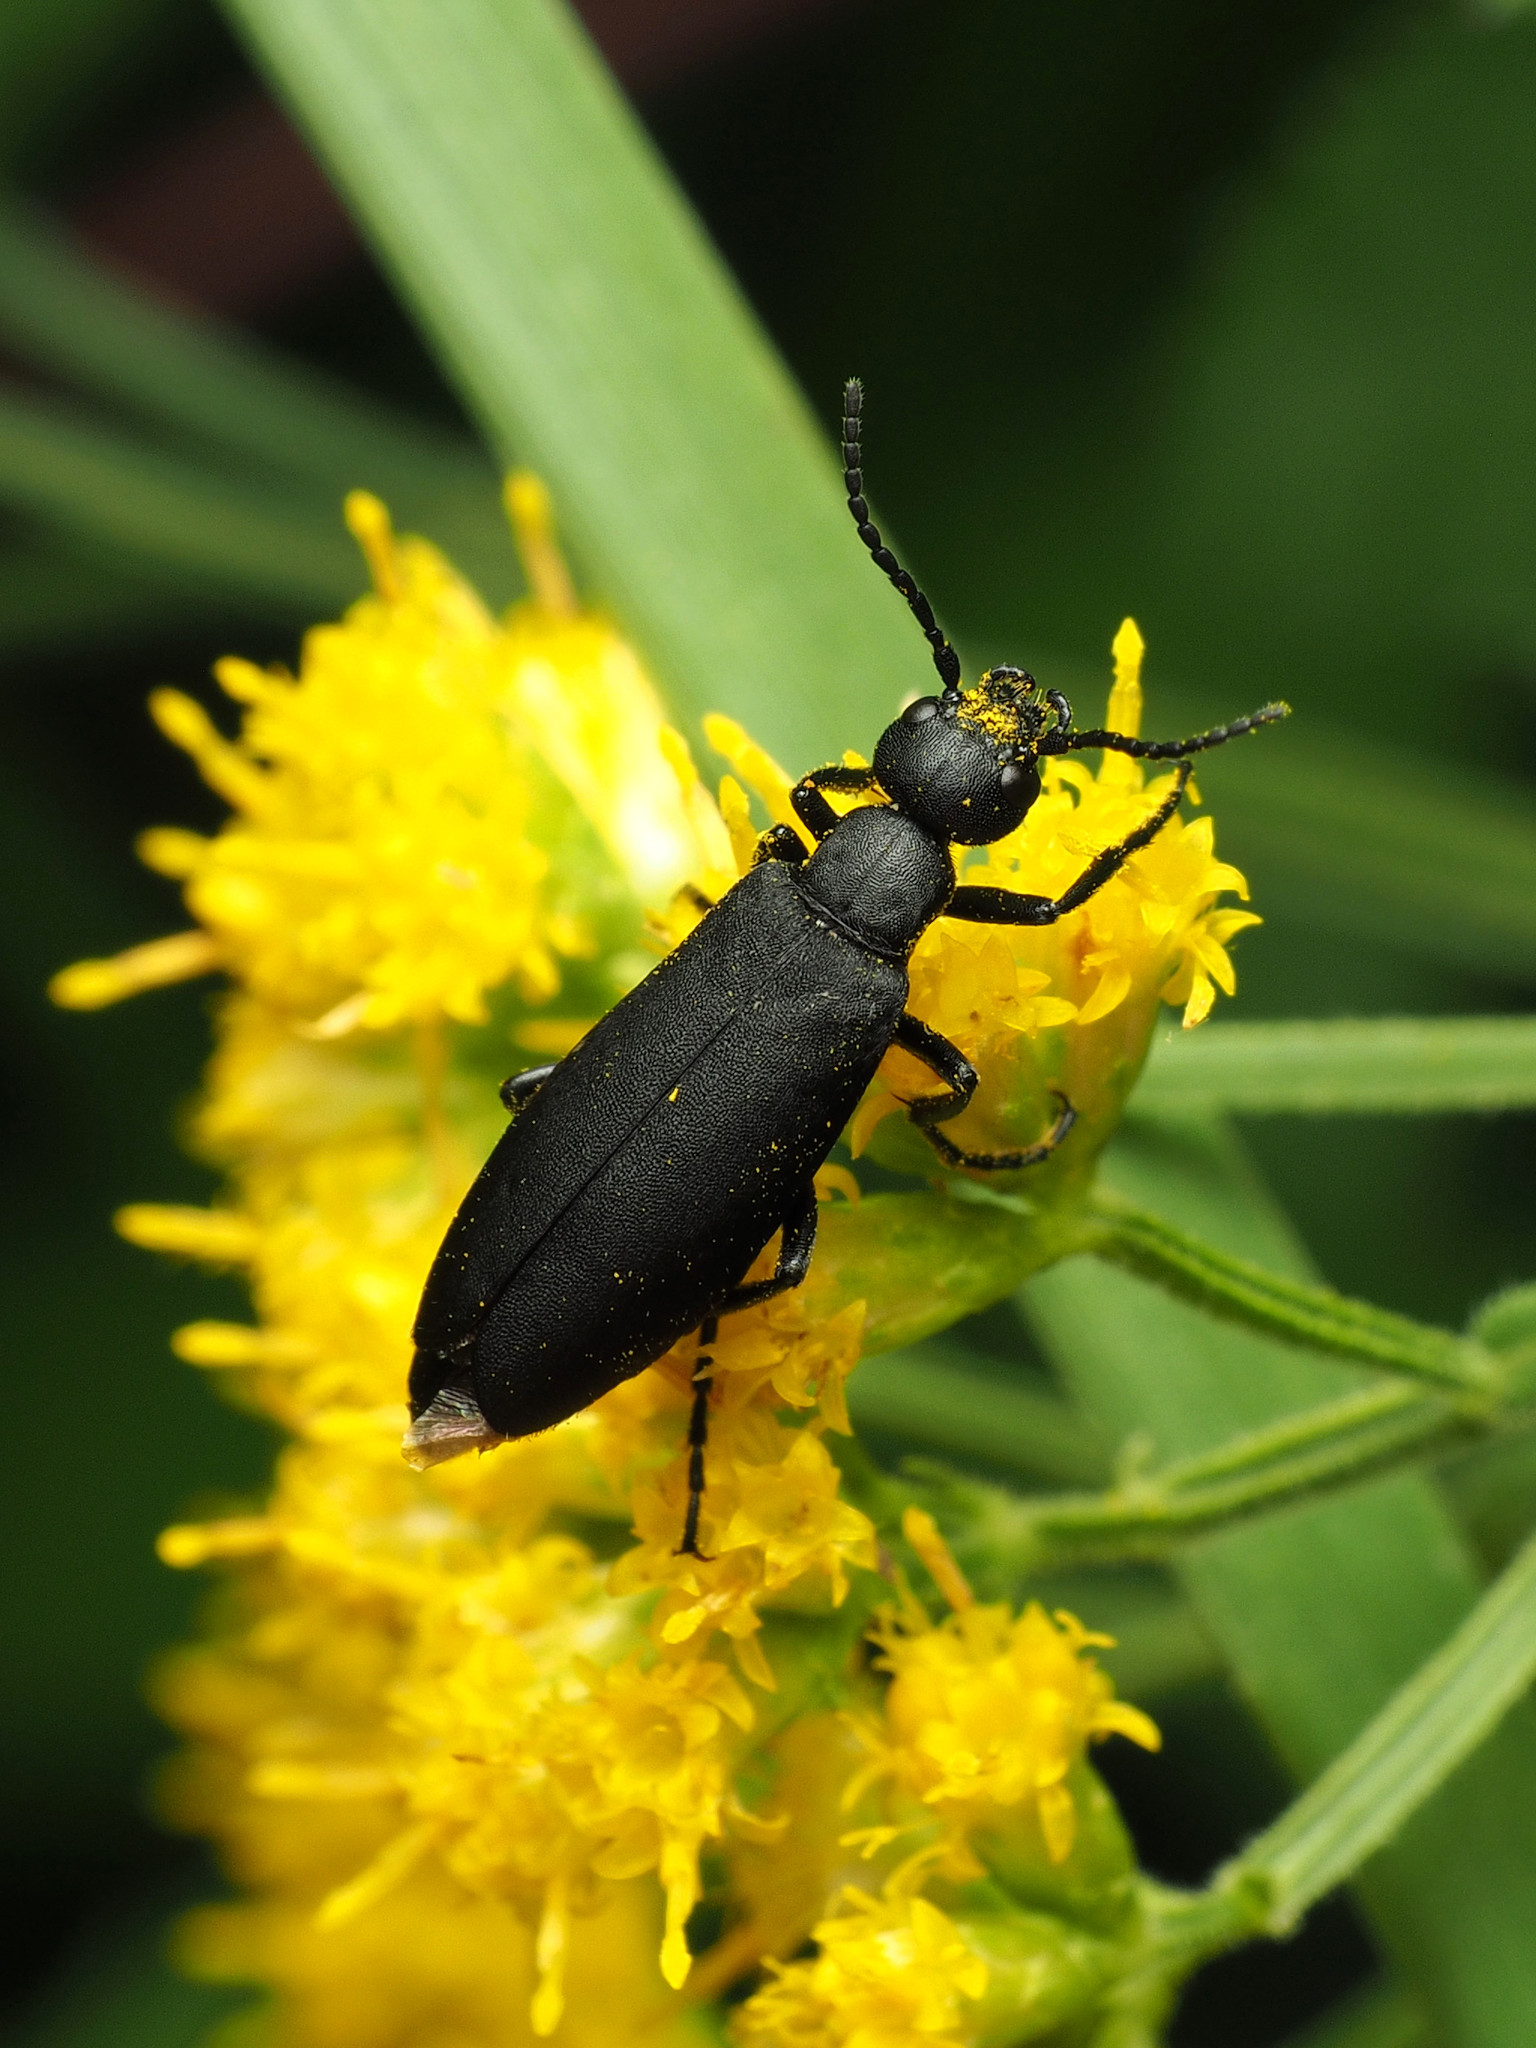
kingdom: Animalia
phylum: Arthropoda
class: Insecta
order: Coleoptera
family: Meloidae
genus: Epicauta
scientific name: Epicauta pensylvanica
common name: Black blister beetle
